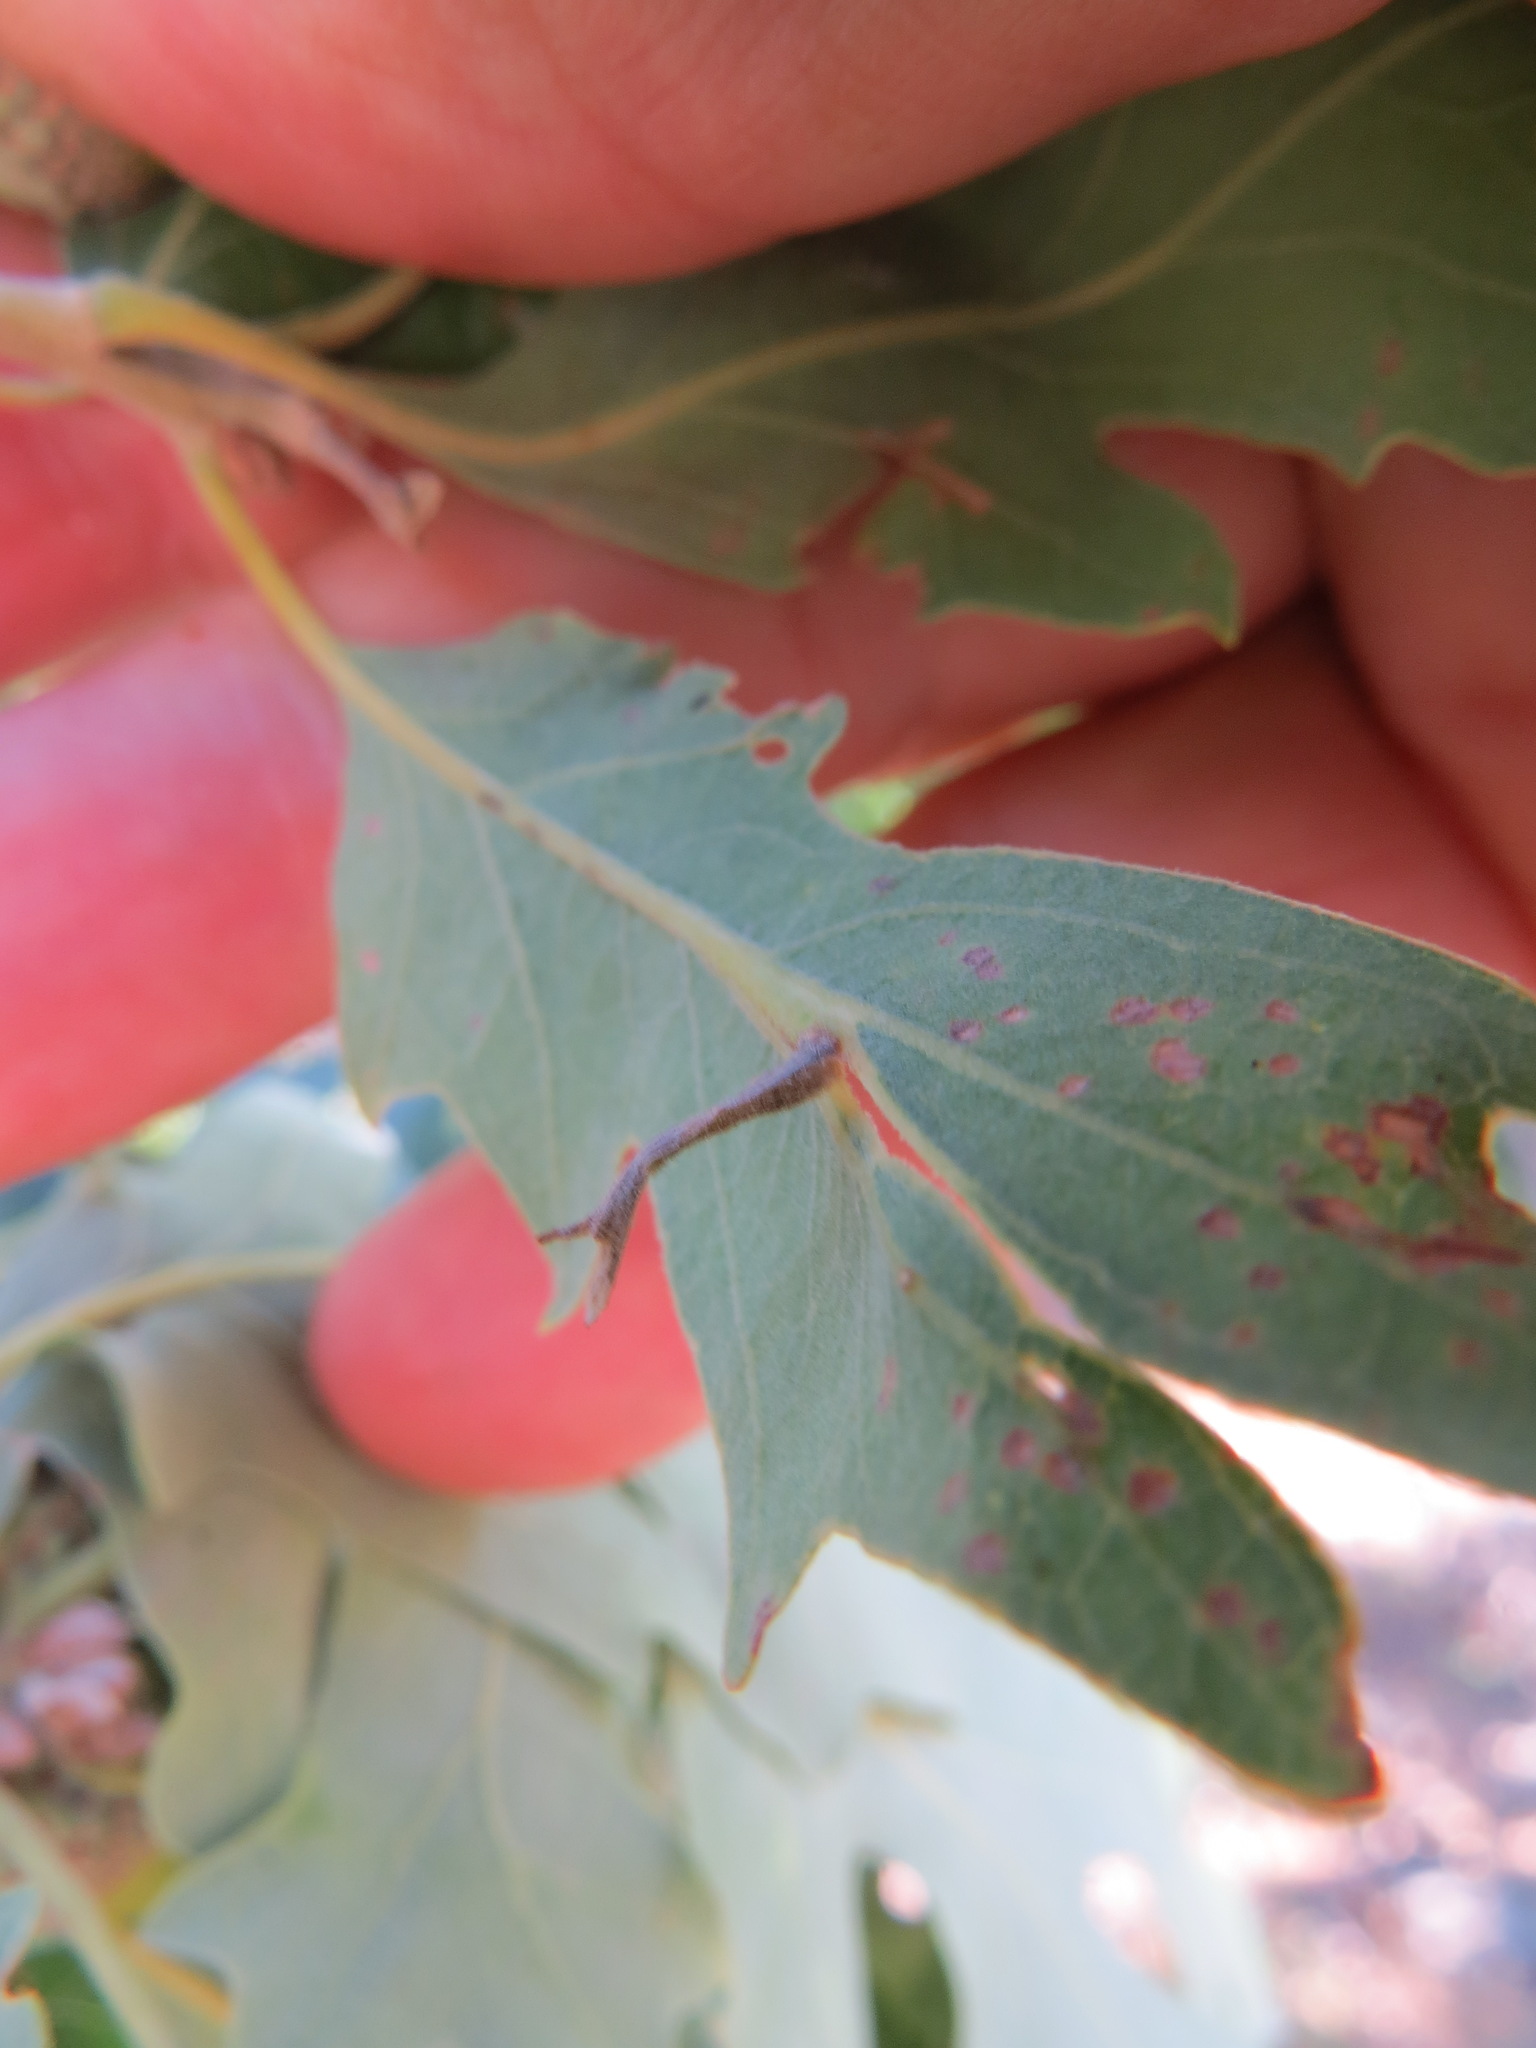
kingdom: Animalia
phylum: Arthropoda
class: Insecta
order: Hymenoptera
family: Cynipidae
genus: Andricus
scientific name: Andricus
